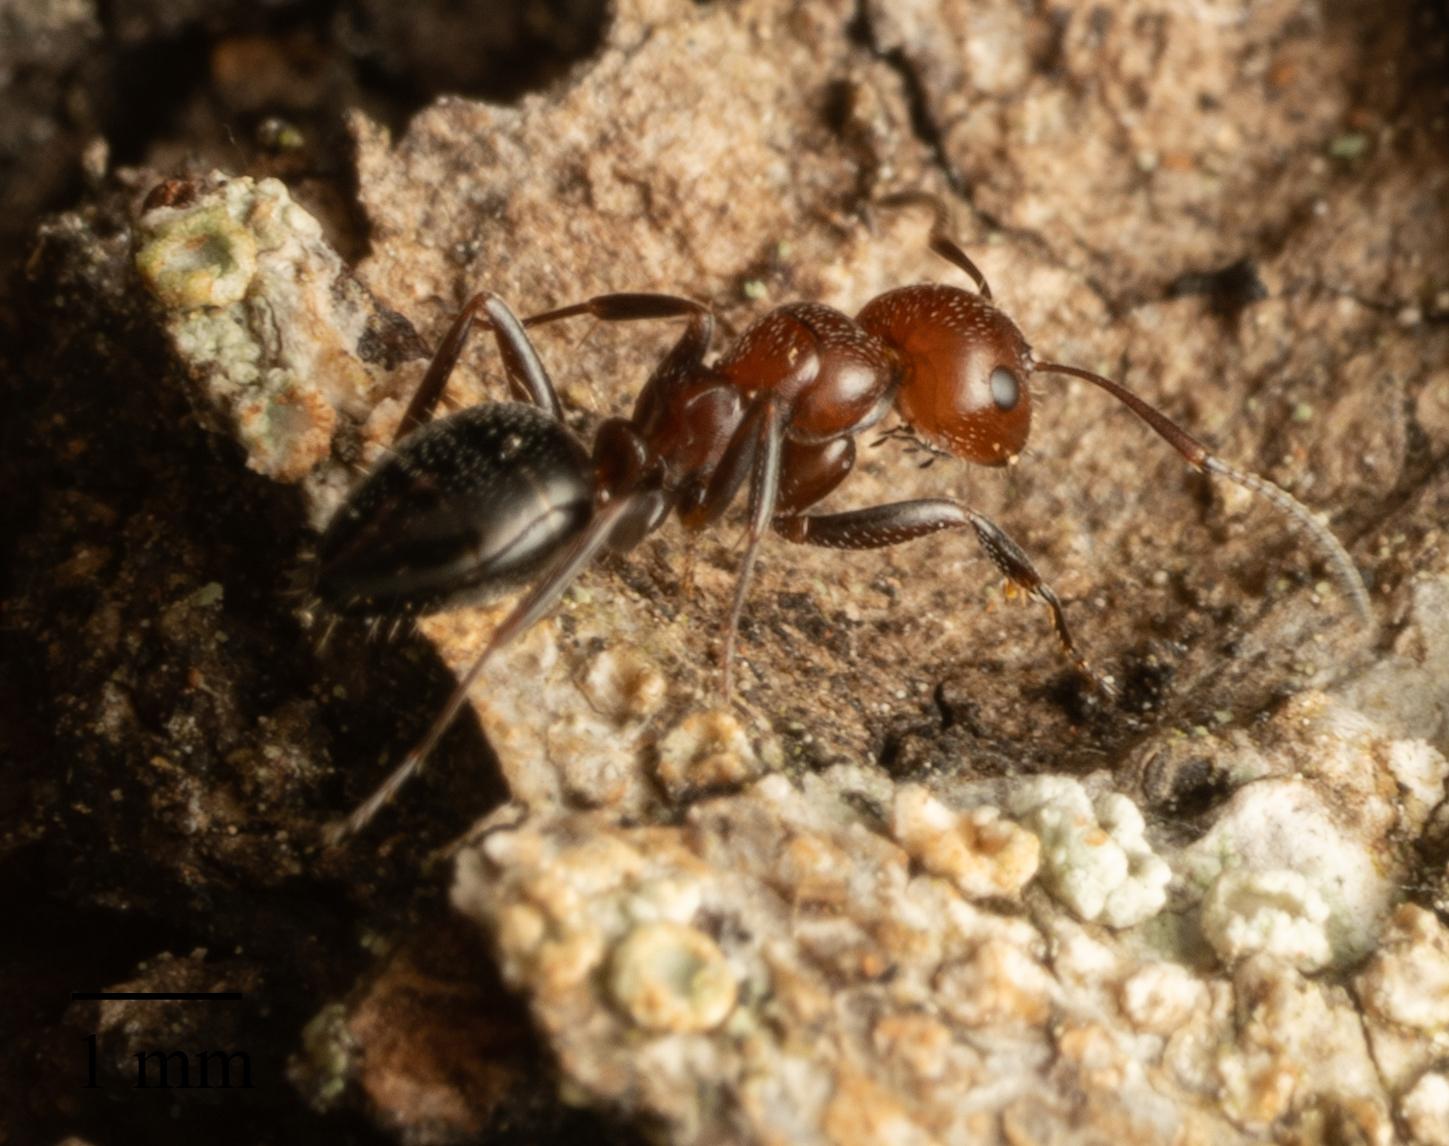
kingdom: Animalia
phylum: Arthropoda
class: Insecta
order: Hymenoptera
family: Formicidae
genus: Camponotus
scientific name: Camponotus lateralis
